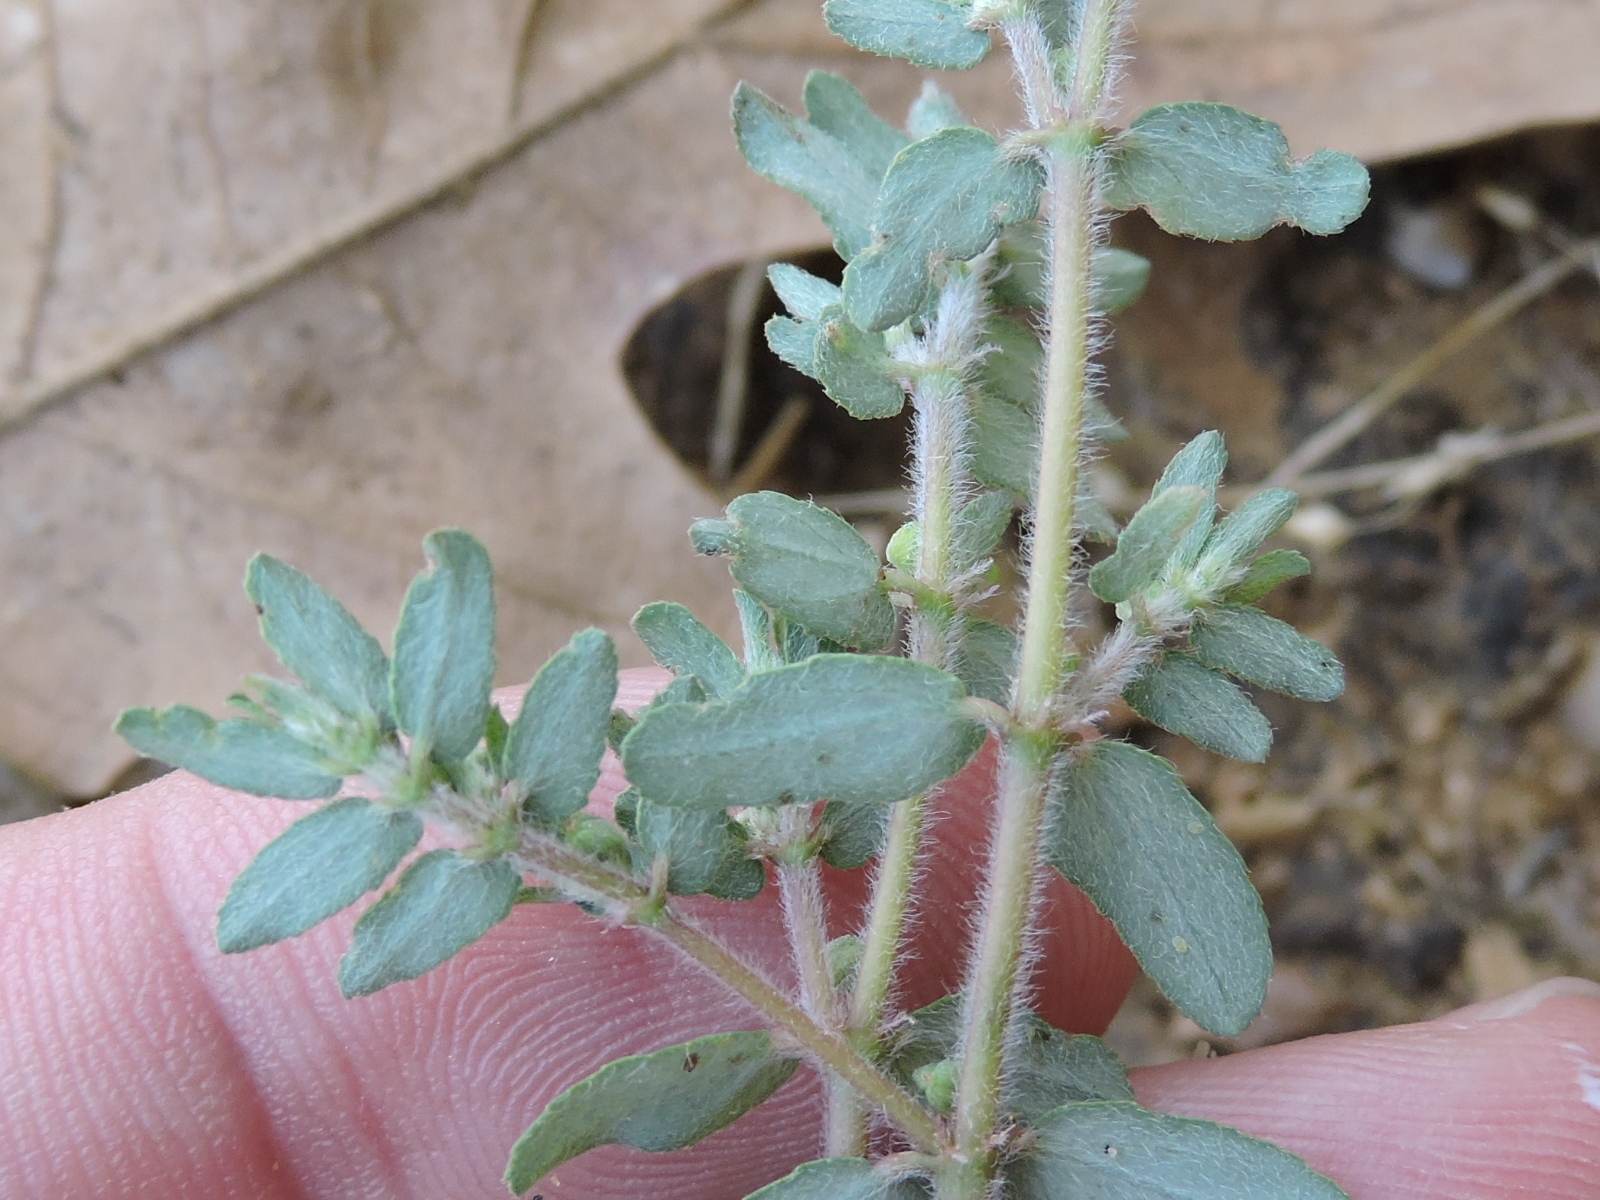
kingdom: Plantae
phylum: Tracheophyta
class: Magnoliopsida
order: Malpighiales
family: Euphorbiaceae
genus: Euphorbia
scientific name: Euphorbia maculata
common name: Spotted spurge
